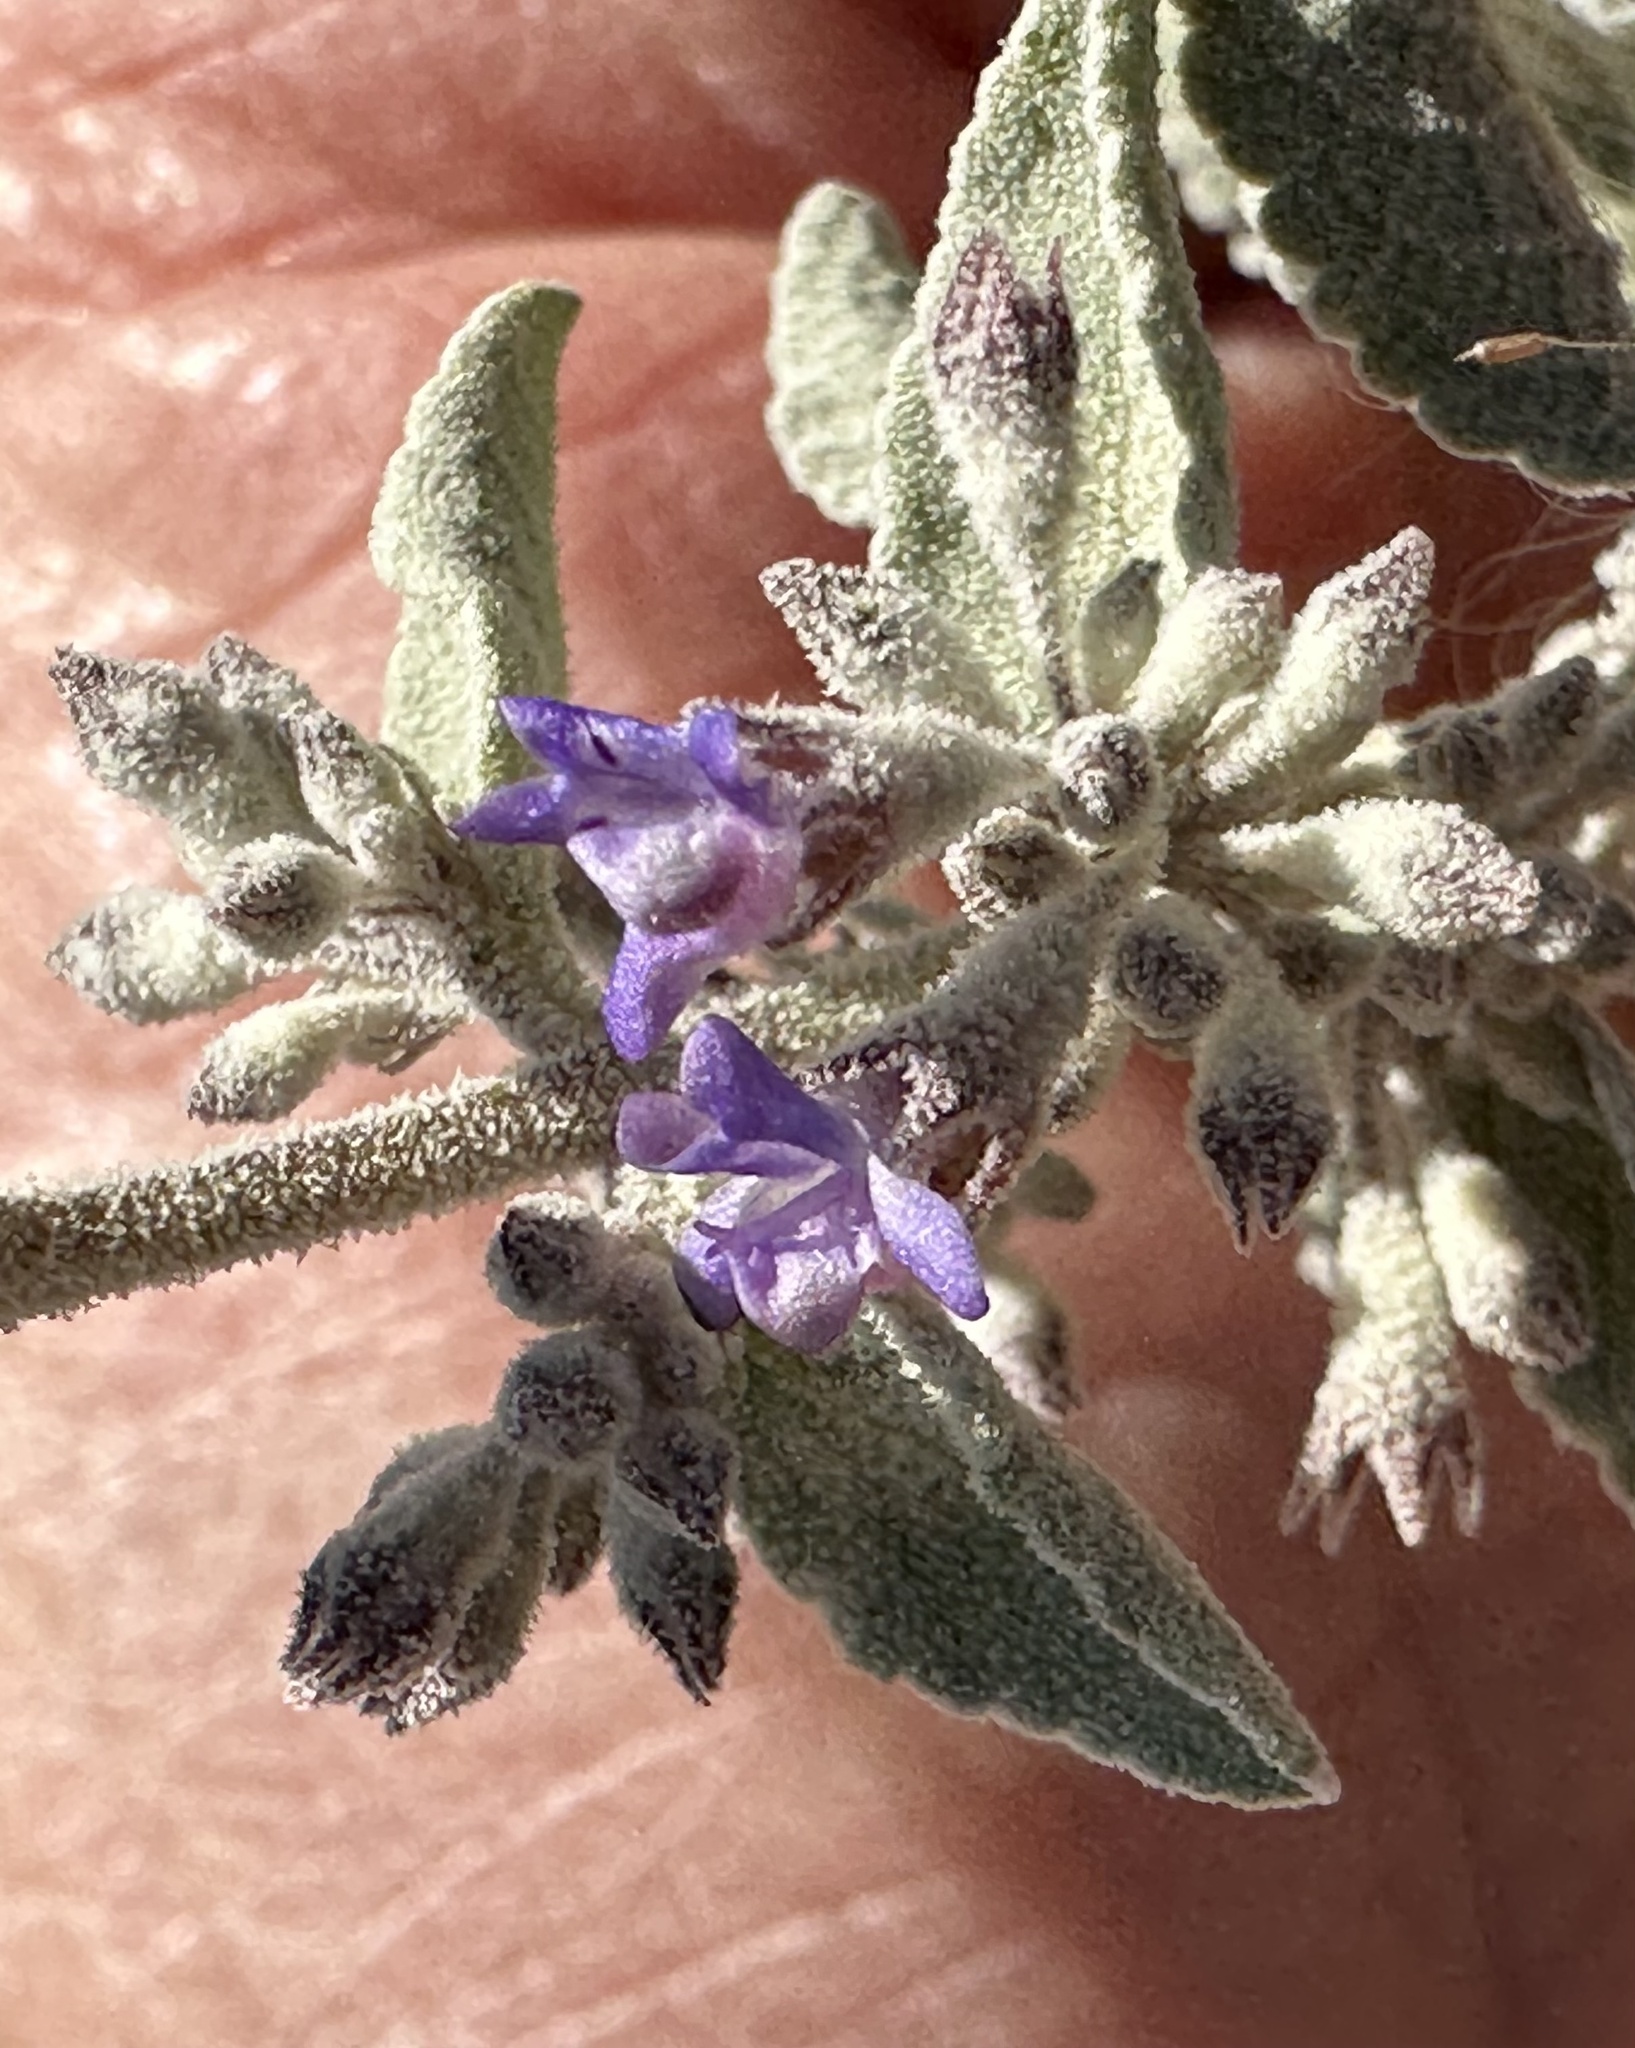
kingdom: Plantae
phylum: Tracheophyta
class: Magnoliopsida
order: Lamiales
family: Lamiaceae
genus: Condea
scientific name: Condea emoryi
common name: Chia
